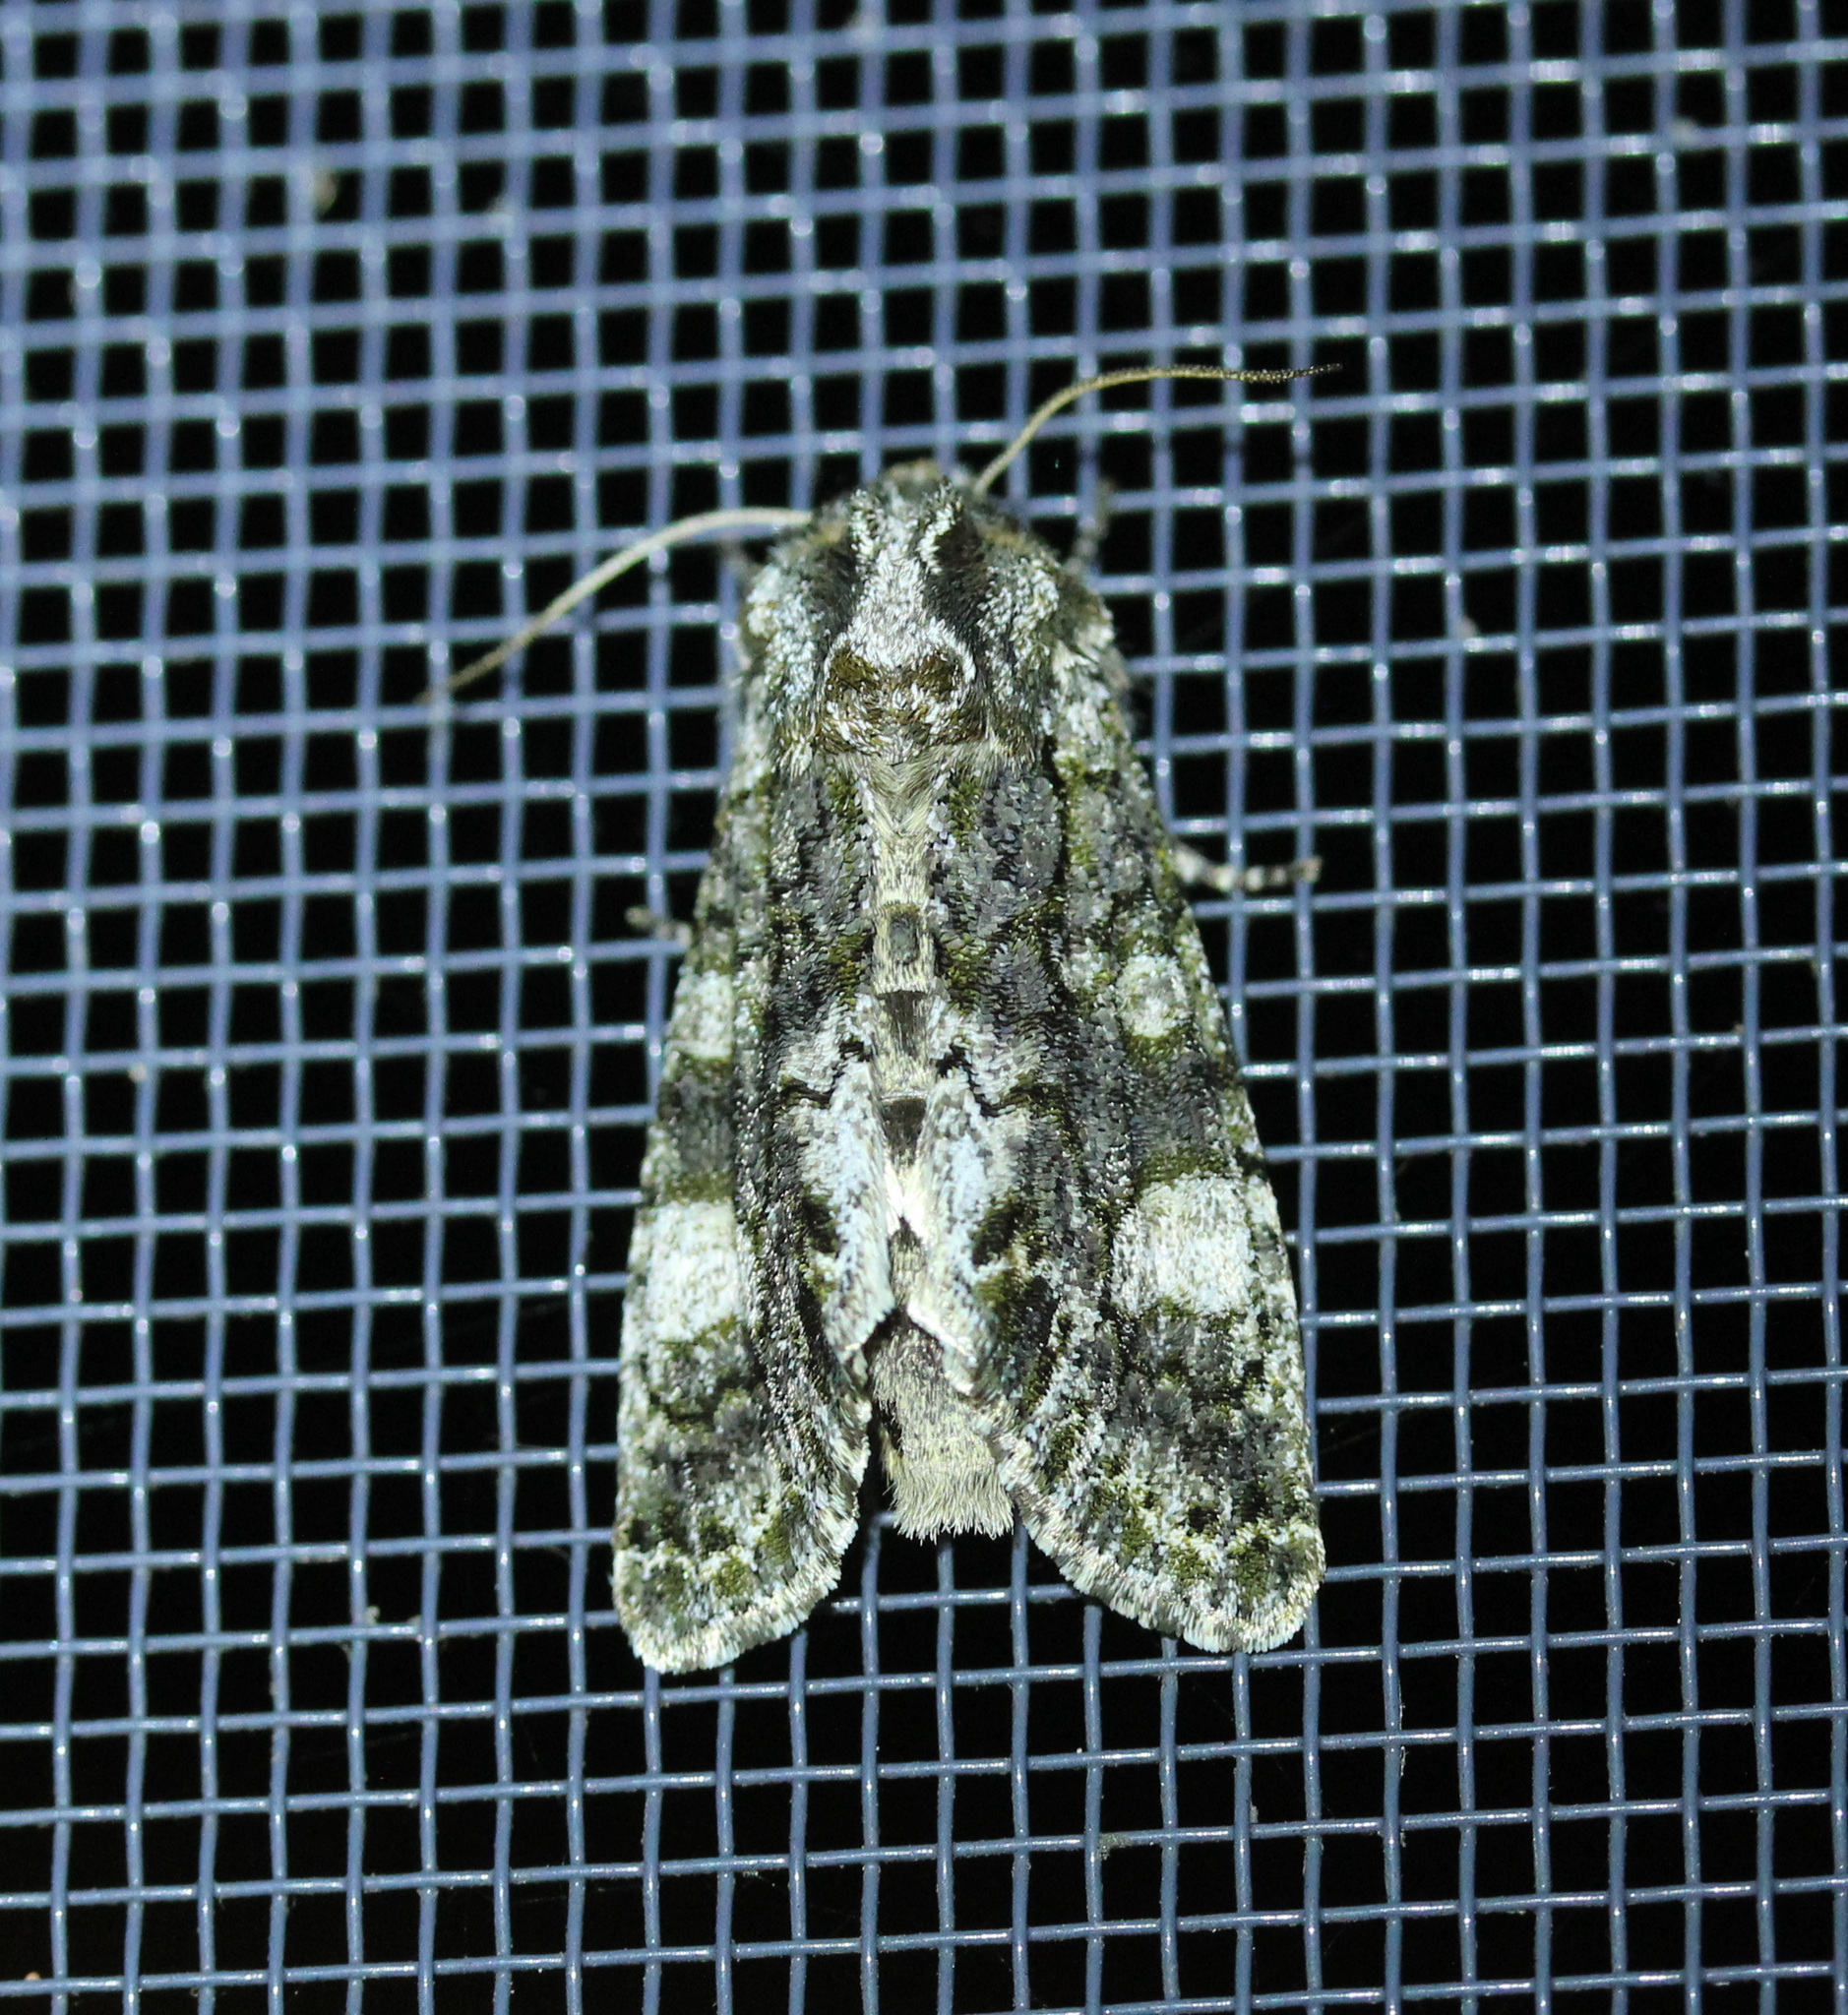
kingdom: Animalia
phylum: Arthropoda
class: Insecta
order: Lepidoptera
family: Noctuidae
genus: Psaphida
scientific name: Psaphida grotei
